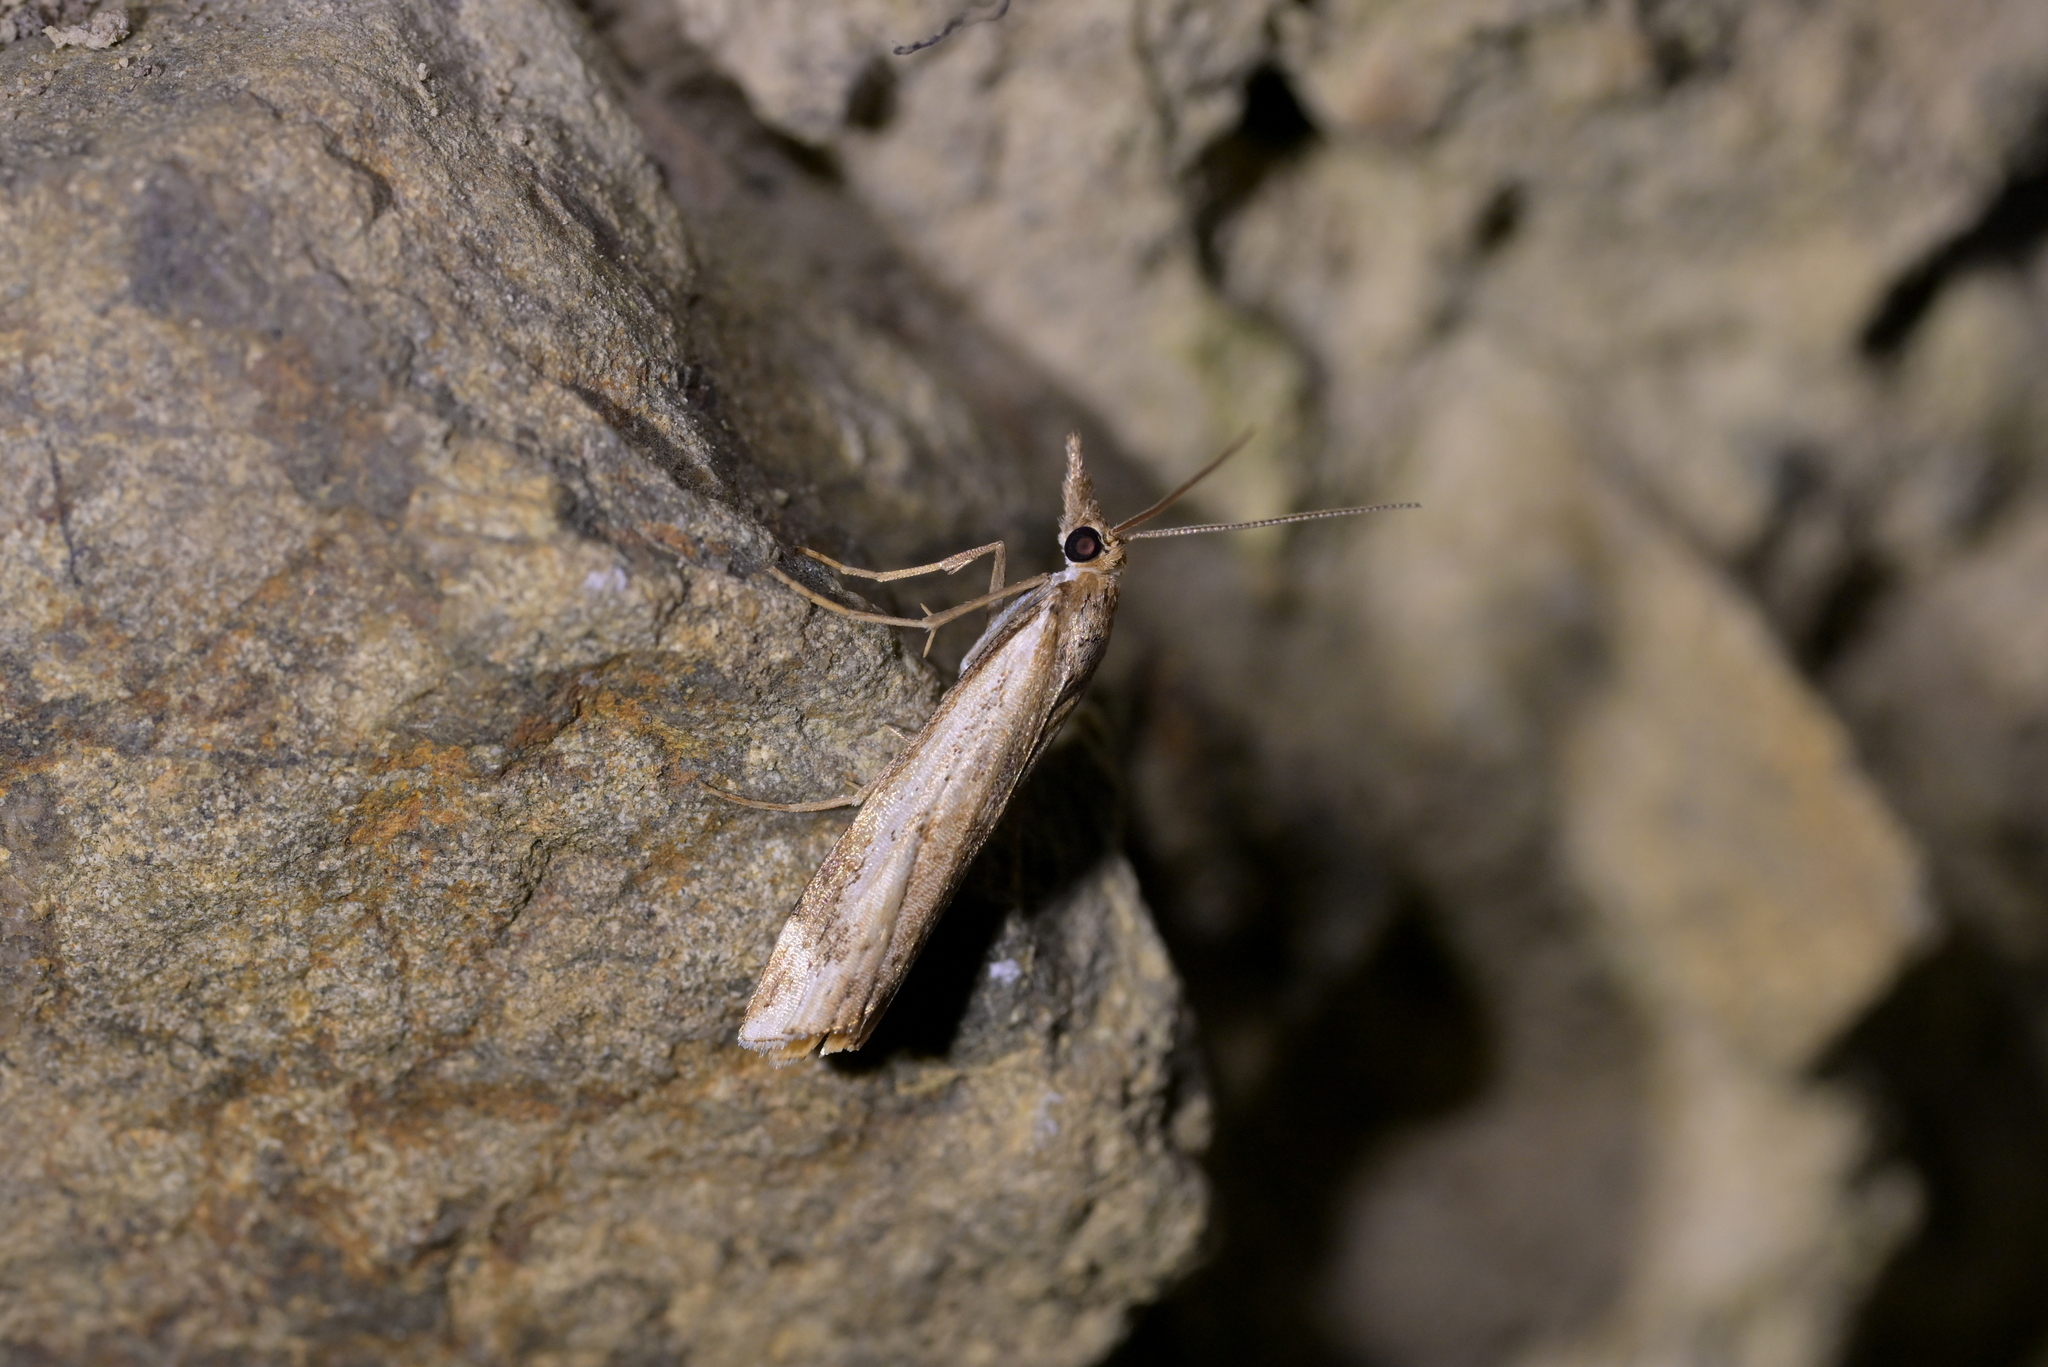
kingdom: Animalia
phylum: Arthropoda
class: Insecta
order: Lepidoptera
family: Crambidae
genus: Orocrambus
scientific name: Orocrambus vulgaris
